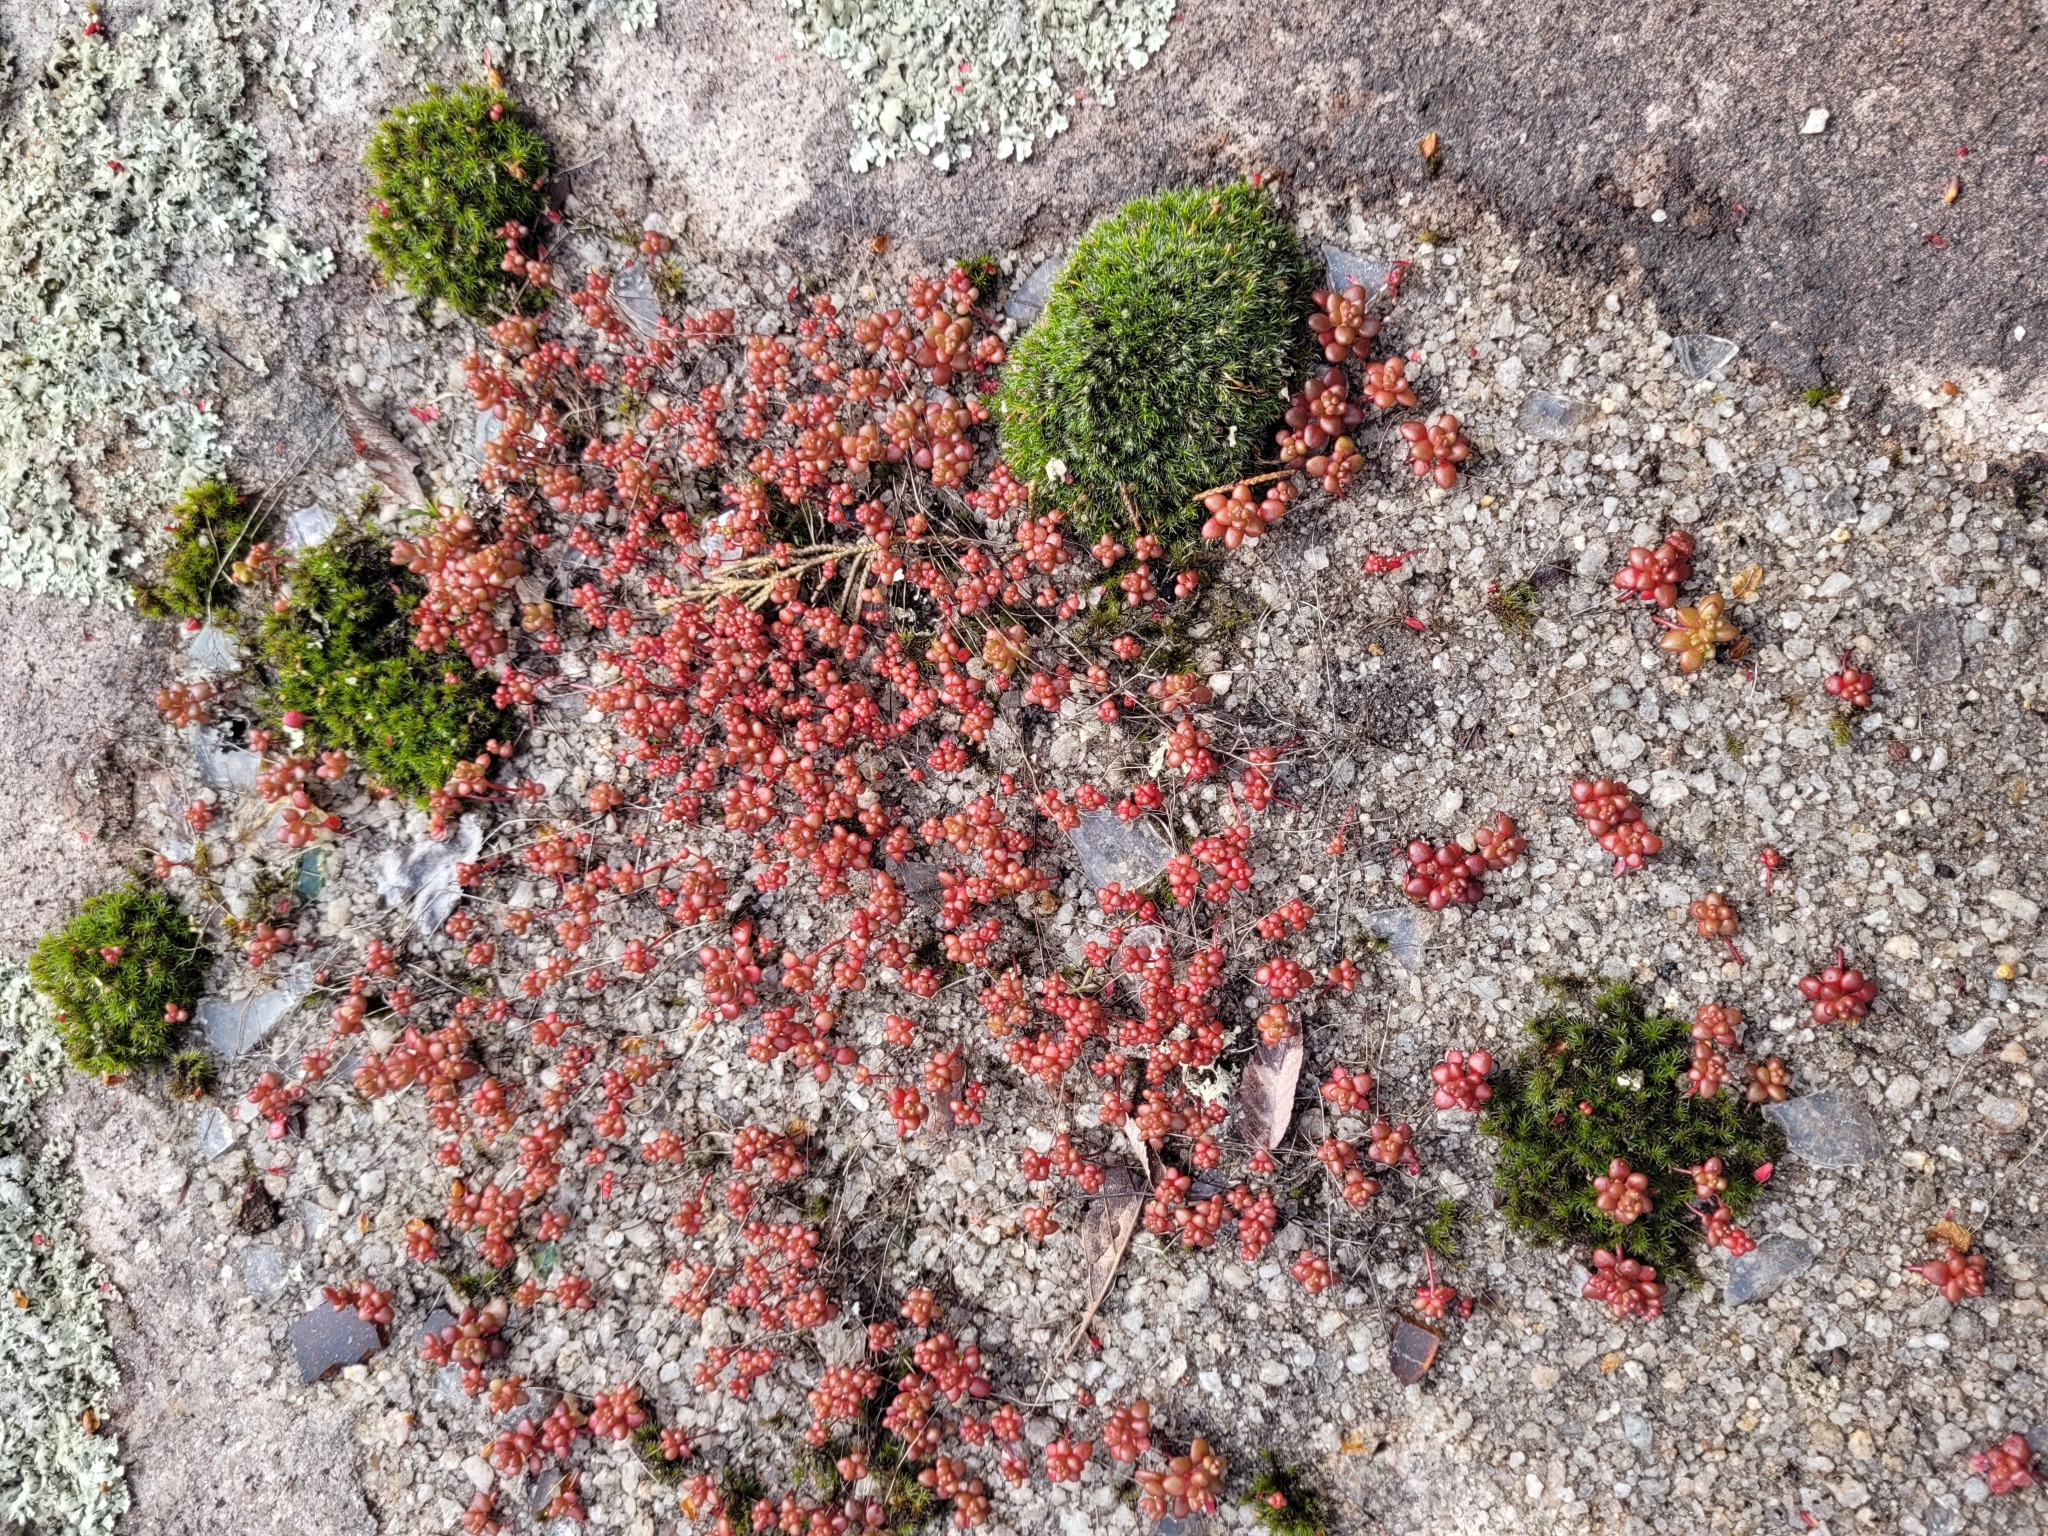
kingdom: Plantae
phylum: Tracheophyta
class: Magnoliopsida
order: Saxifragales
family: Crassulaceae
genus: Sedum
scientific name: Sedum smallii
